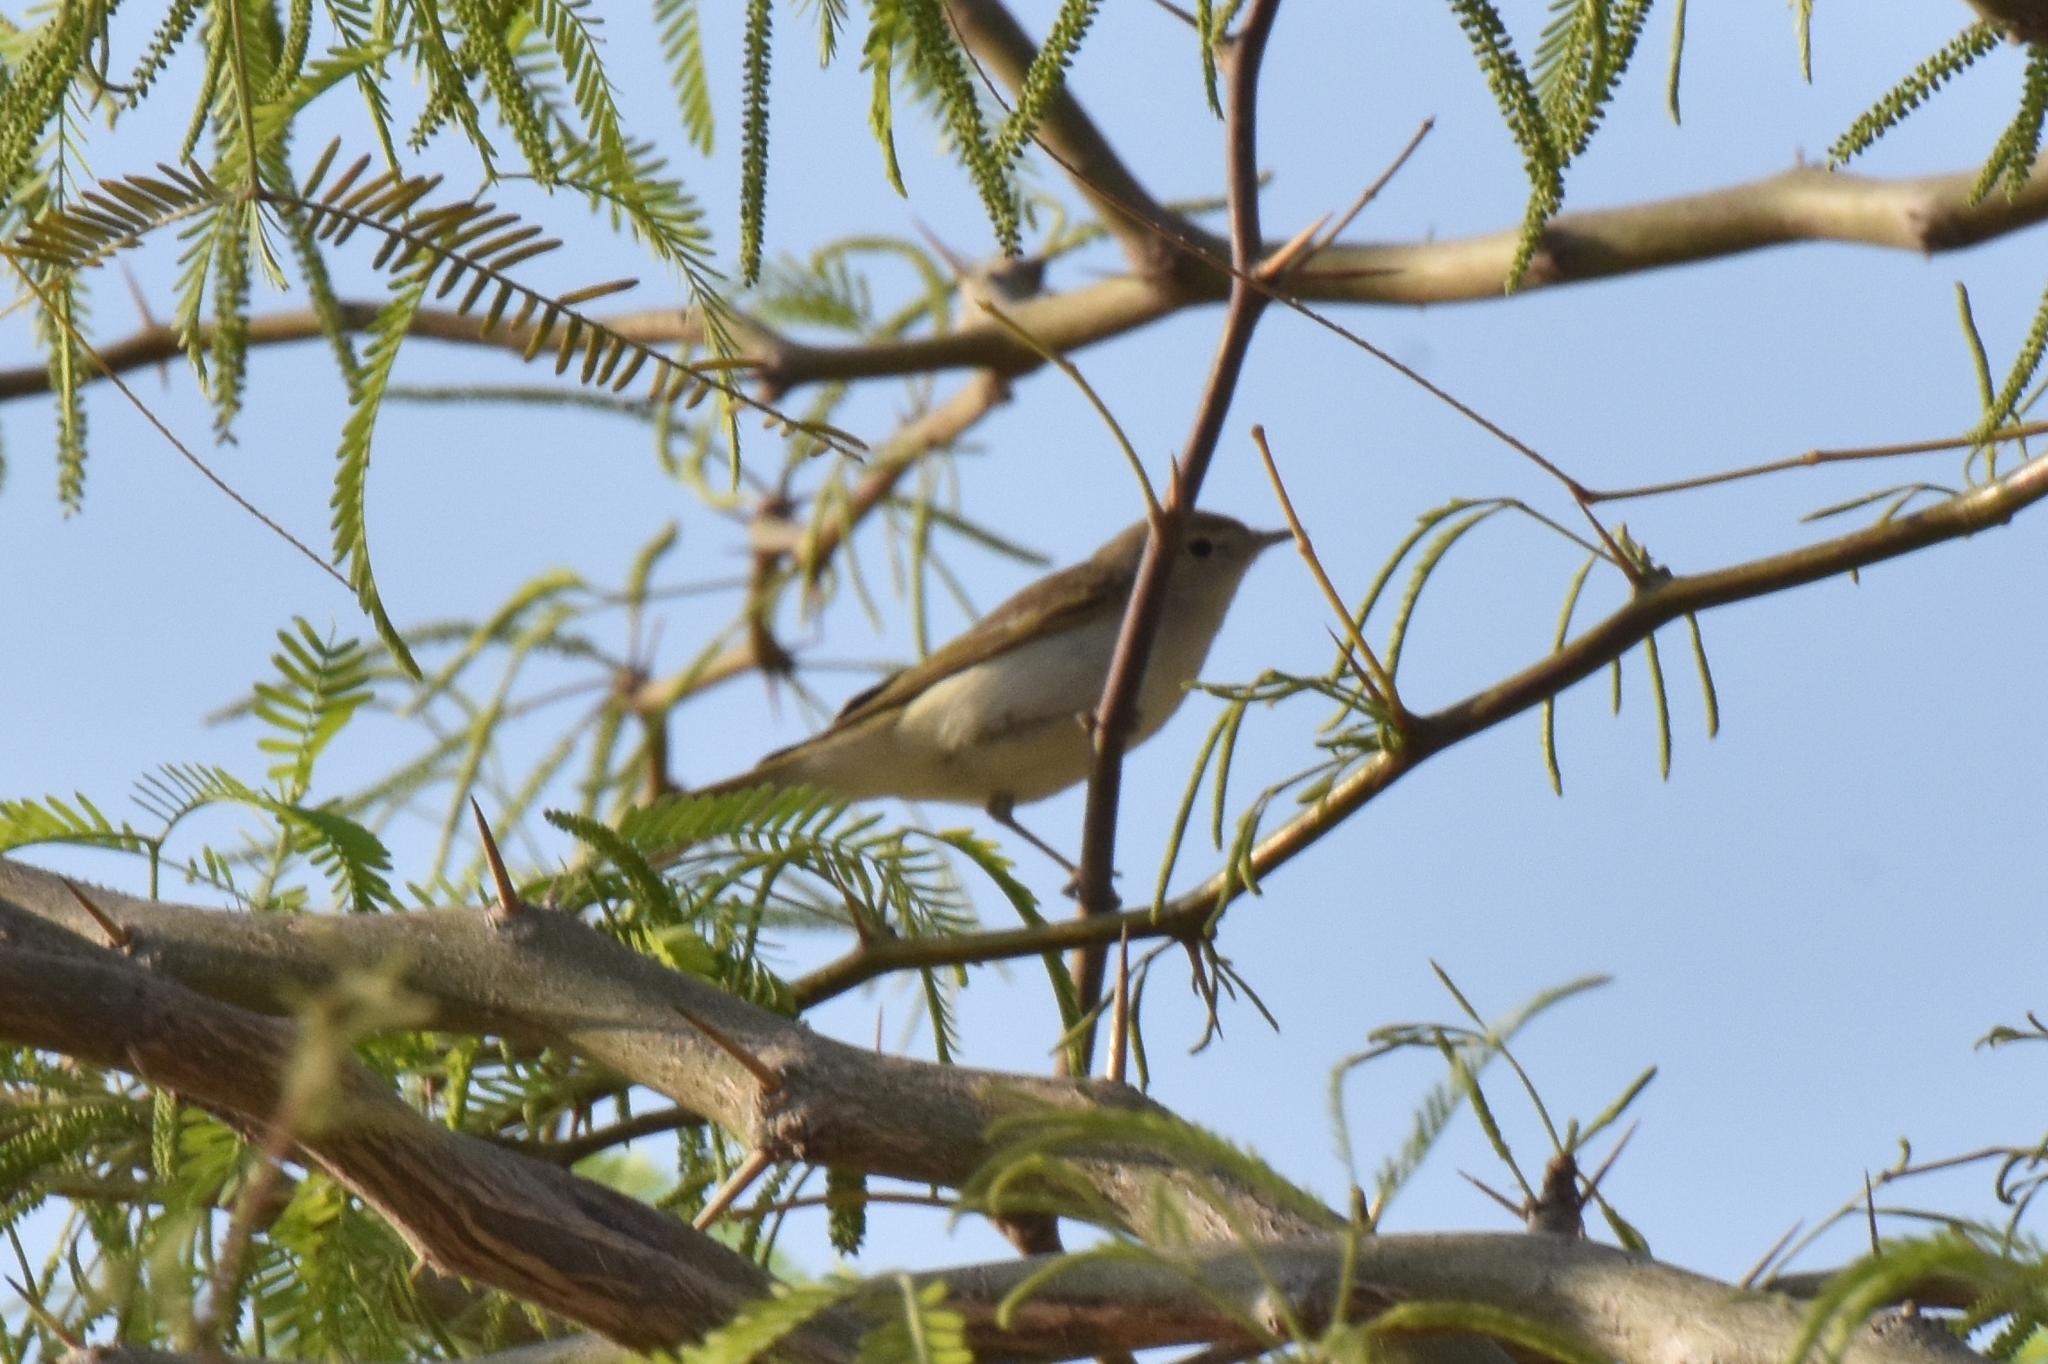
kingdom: Animalia
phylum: Chordata
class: Aves
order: Passeriformes
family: Phylloscopidae
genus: Phylloscopus
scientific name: Phylloscopus orientalis
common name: Eastern bonelli's warbler
